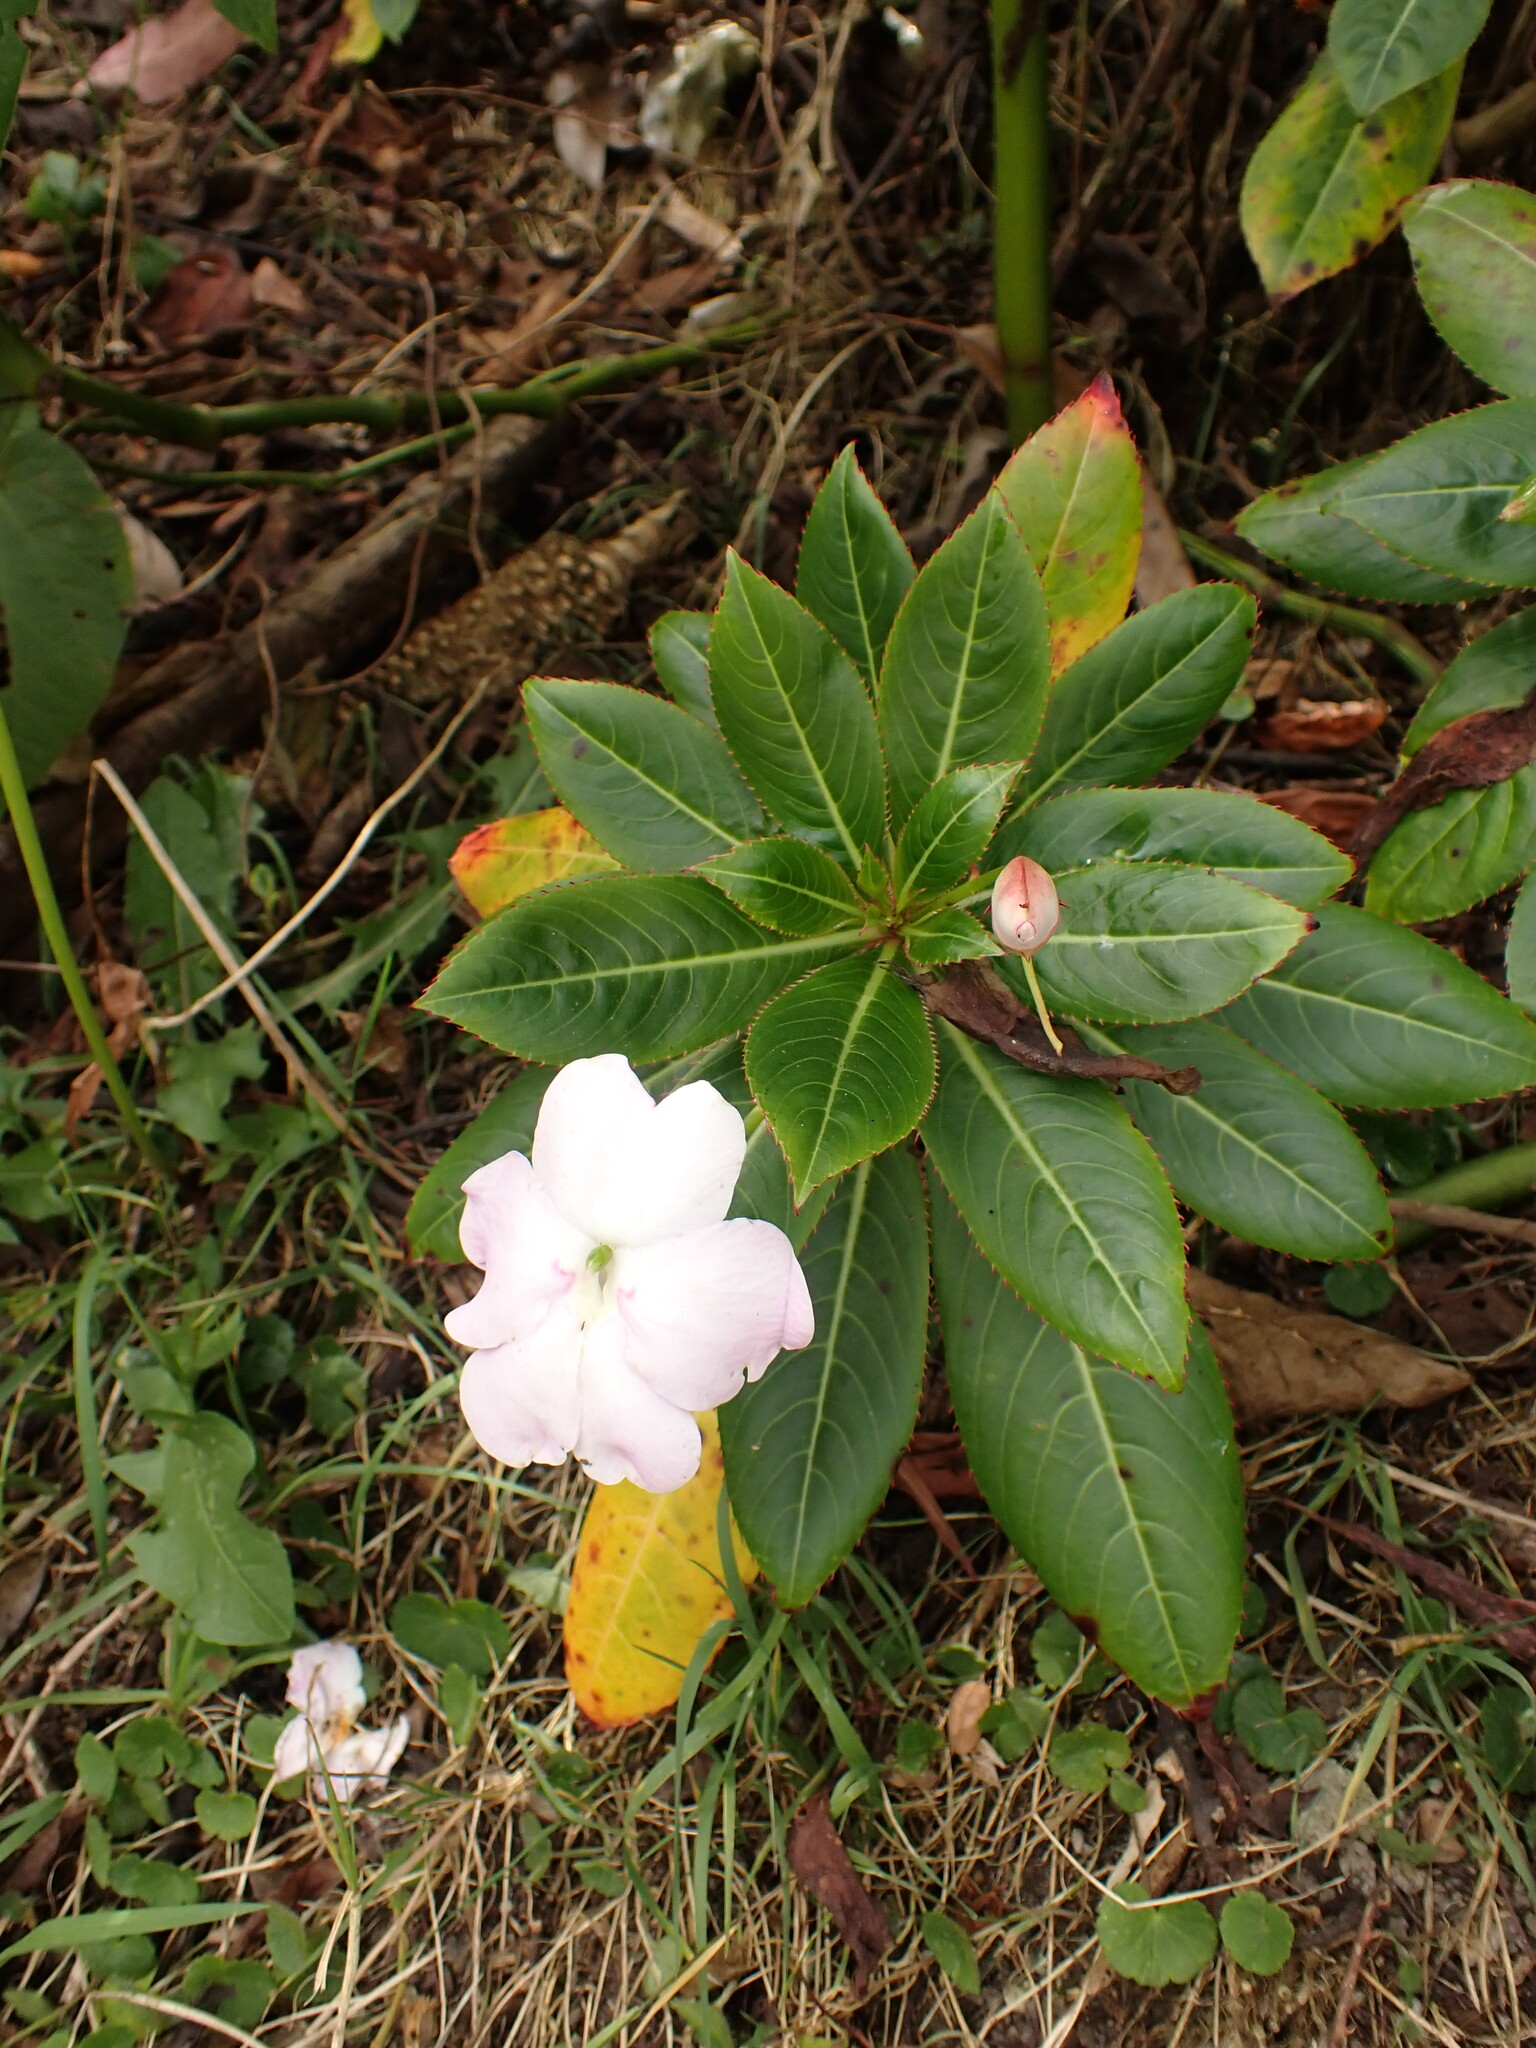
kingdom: Plantae
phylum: Tracheophyta
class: Magnoliopsida
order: Ericales
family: Balsaminaceae
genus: Impatiens
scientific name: Impatiens sodenii
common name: Oliver's touch-me-not
